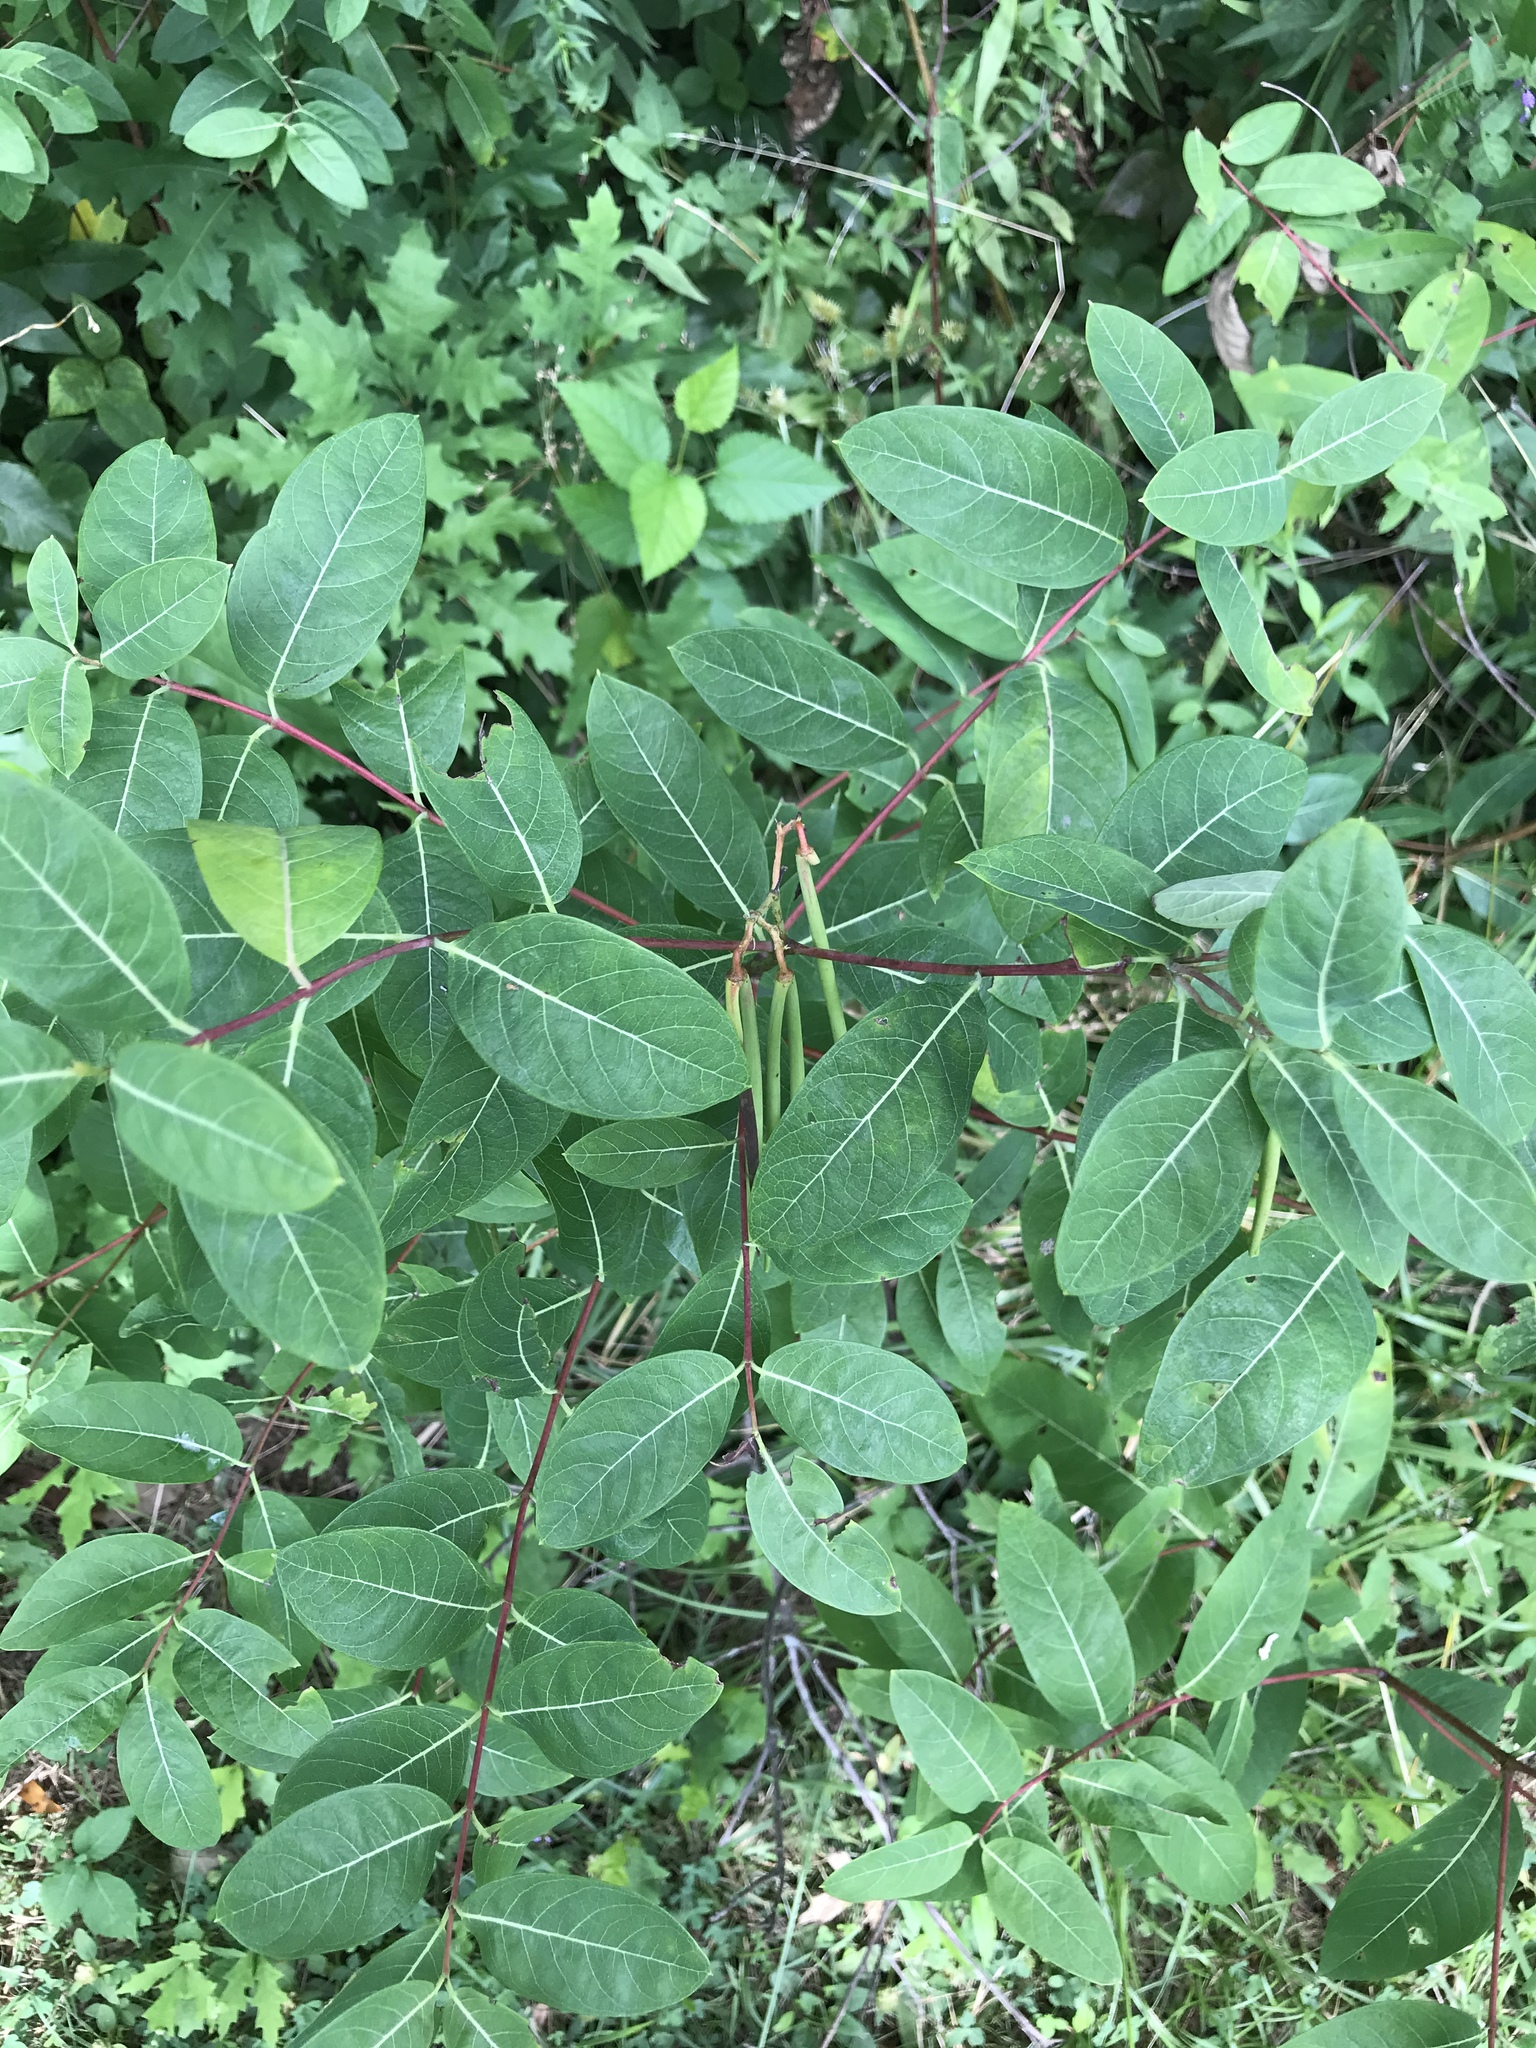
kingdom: Plantae
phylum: Tracheophyta
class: Magnoliopsida
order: Gentianales
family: Apocynaceae
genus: Apocynum
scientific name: Apocynum cannabinum
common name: Hemp dogbane
